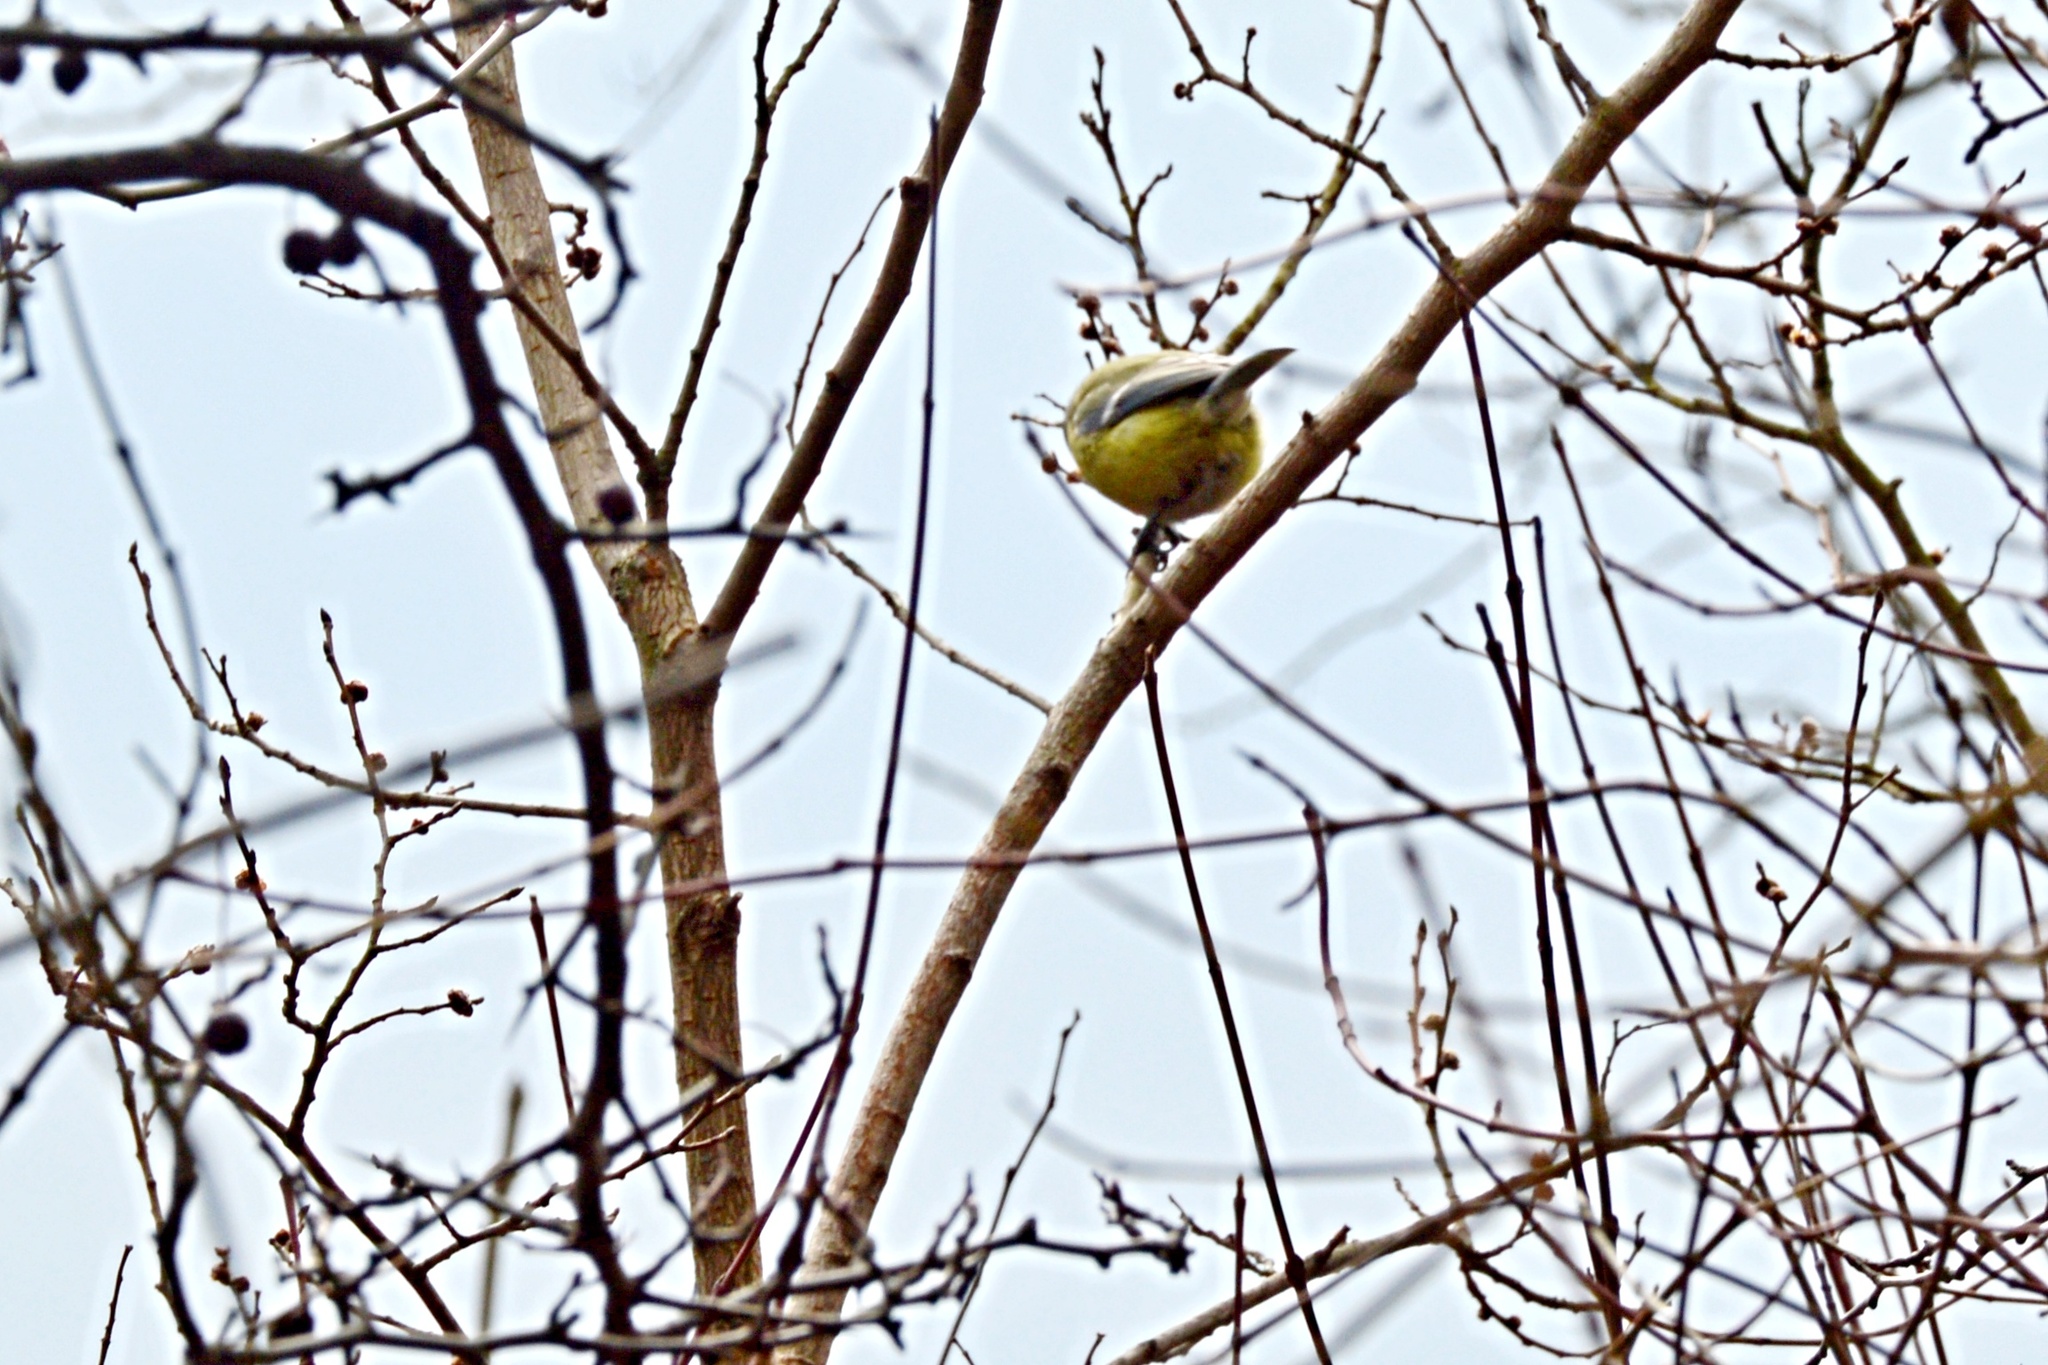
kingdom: Animalia
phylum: Chordata
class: Aves
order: Passeriformes
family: Paridae
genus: Cyanistes
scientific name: Cyanistes caeruleus
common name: Eurasian blue tit
